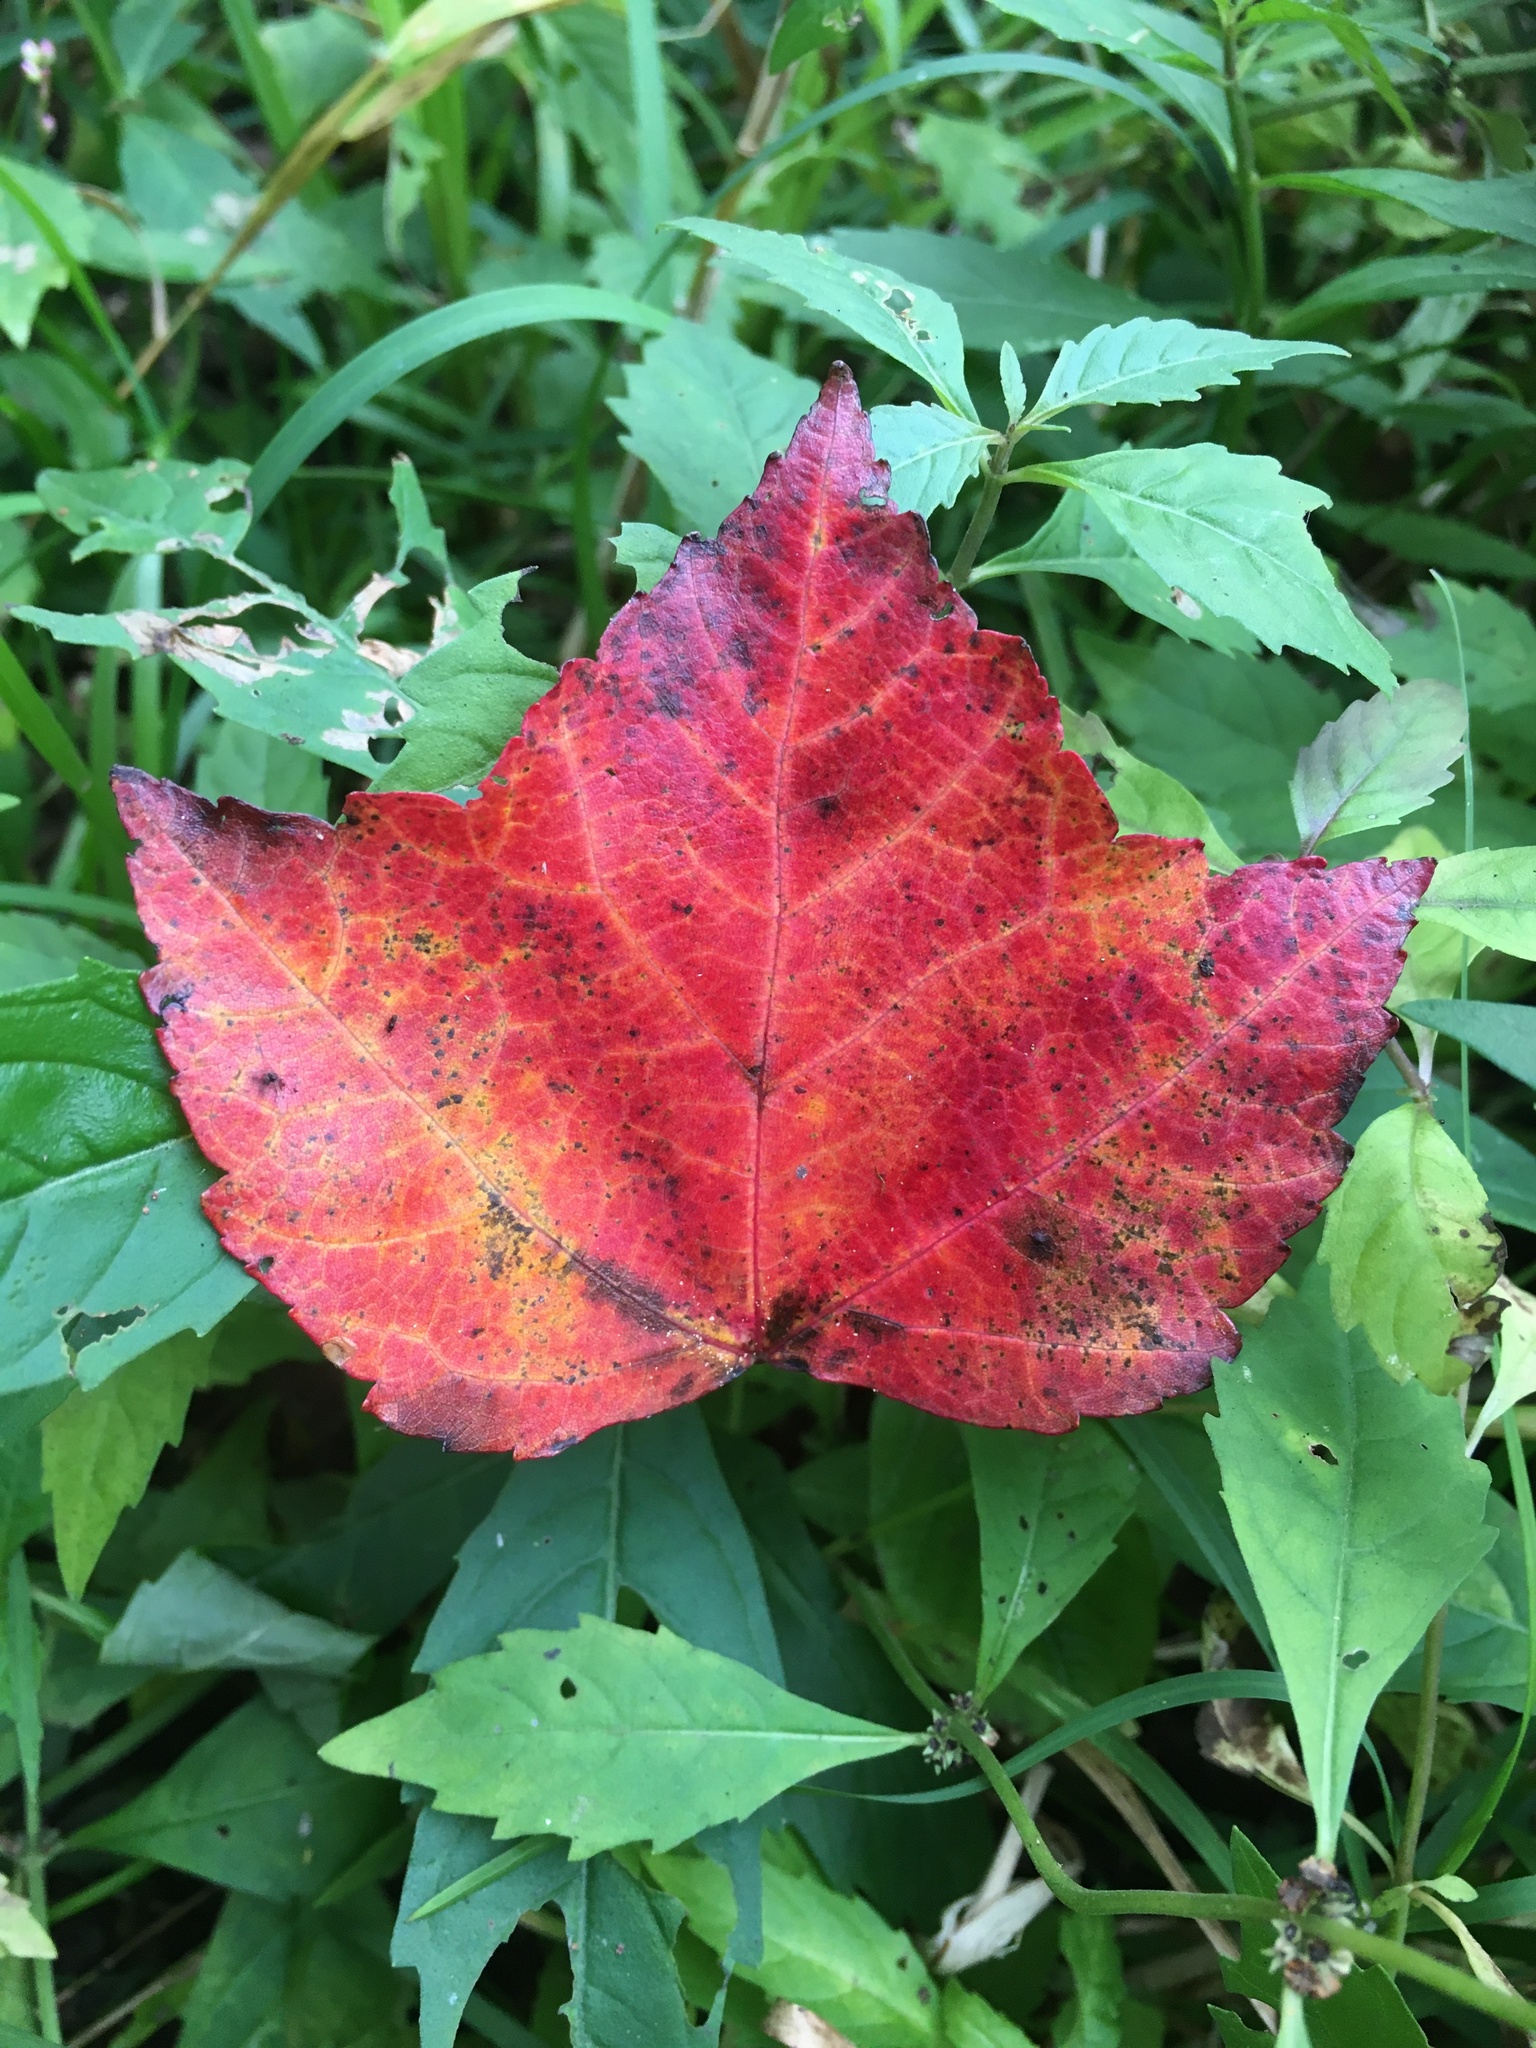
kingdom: Plantae
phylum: Tracheophyta
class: Magnoliopsida
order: Sapindales
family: Sapindaceae
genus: Acer
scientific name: Acer rubrum
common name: Red maple
